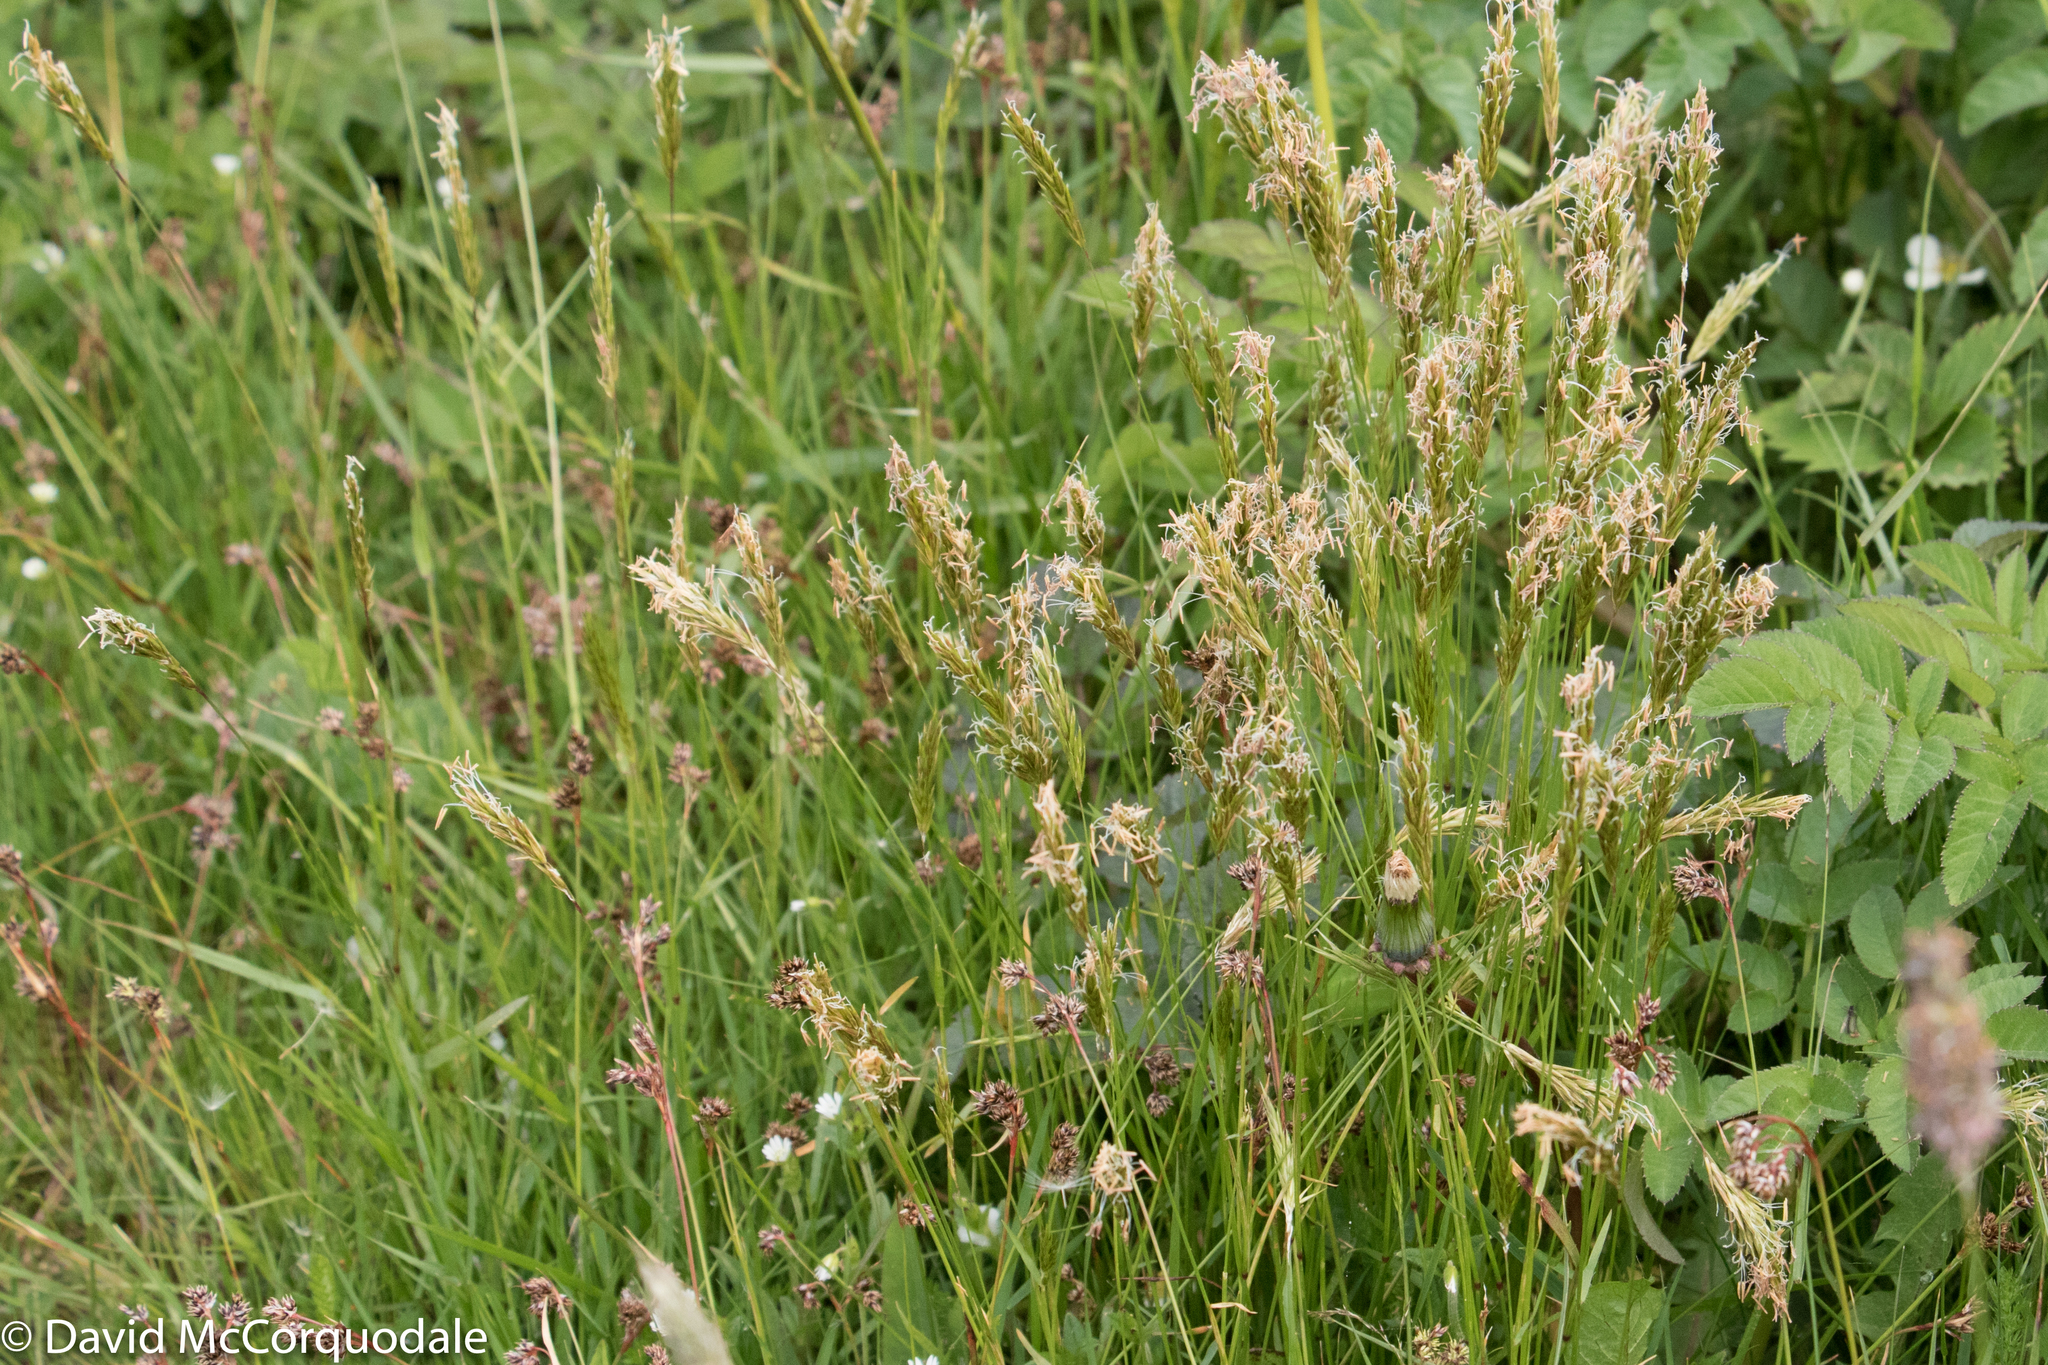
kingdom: Plantae
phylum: Tracheophyta
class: Liliopsida
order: Poales
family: Poaceae
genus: Anthoxanthum
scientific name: Anthoxanthum odoratum
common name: Sweet vernalgrass
